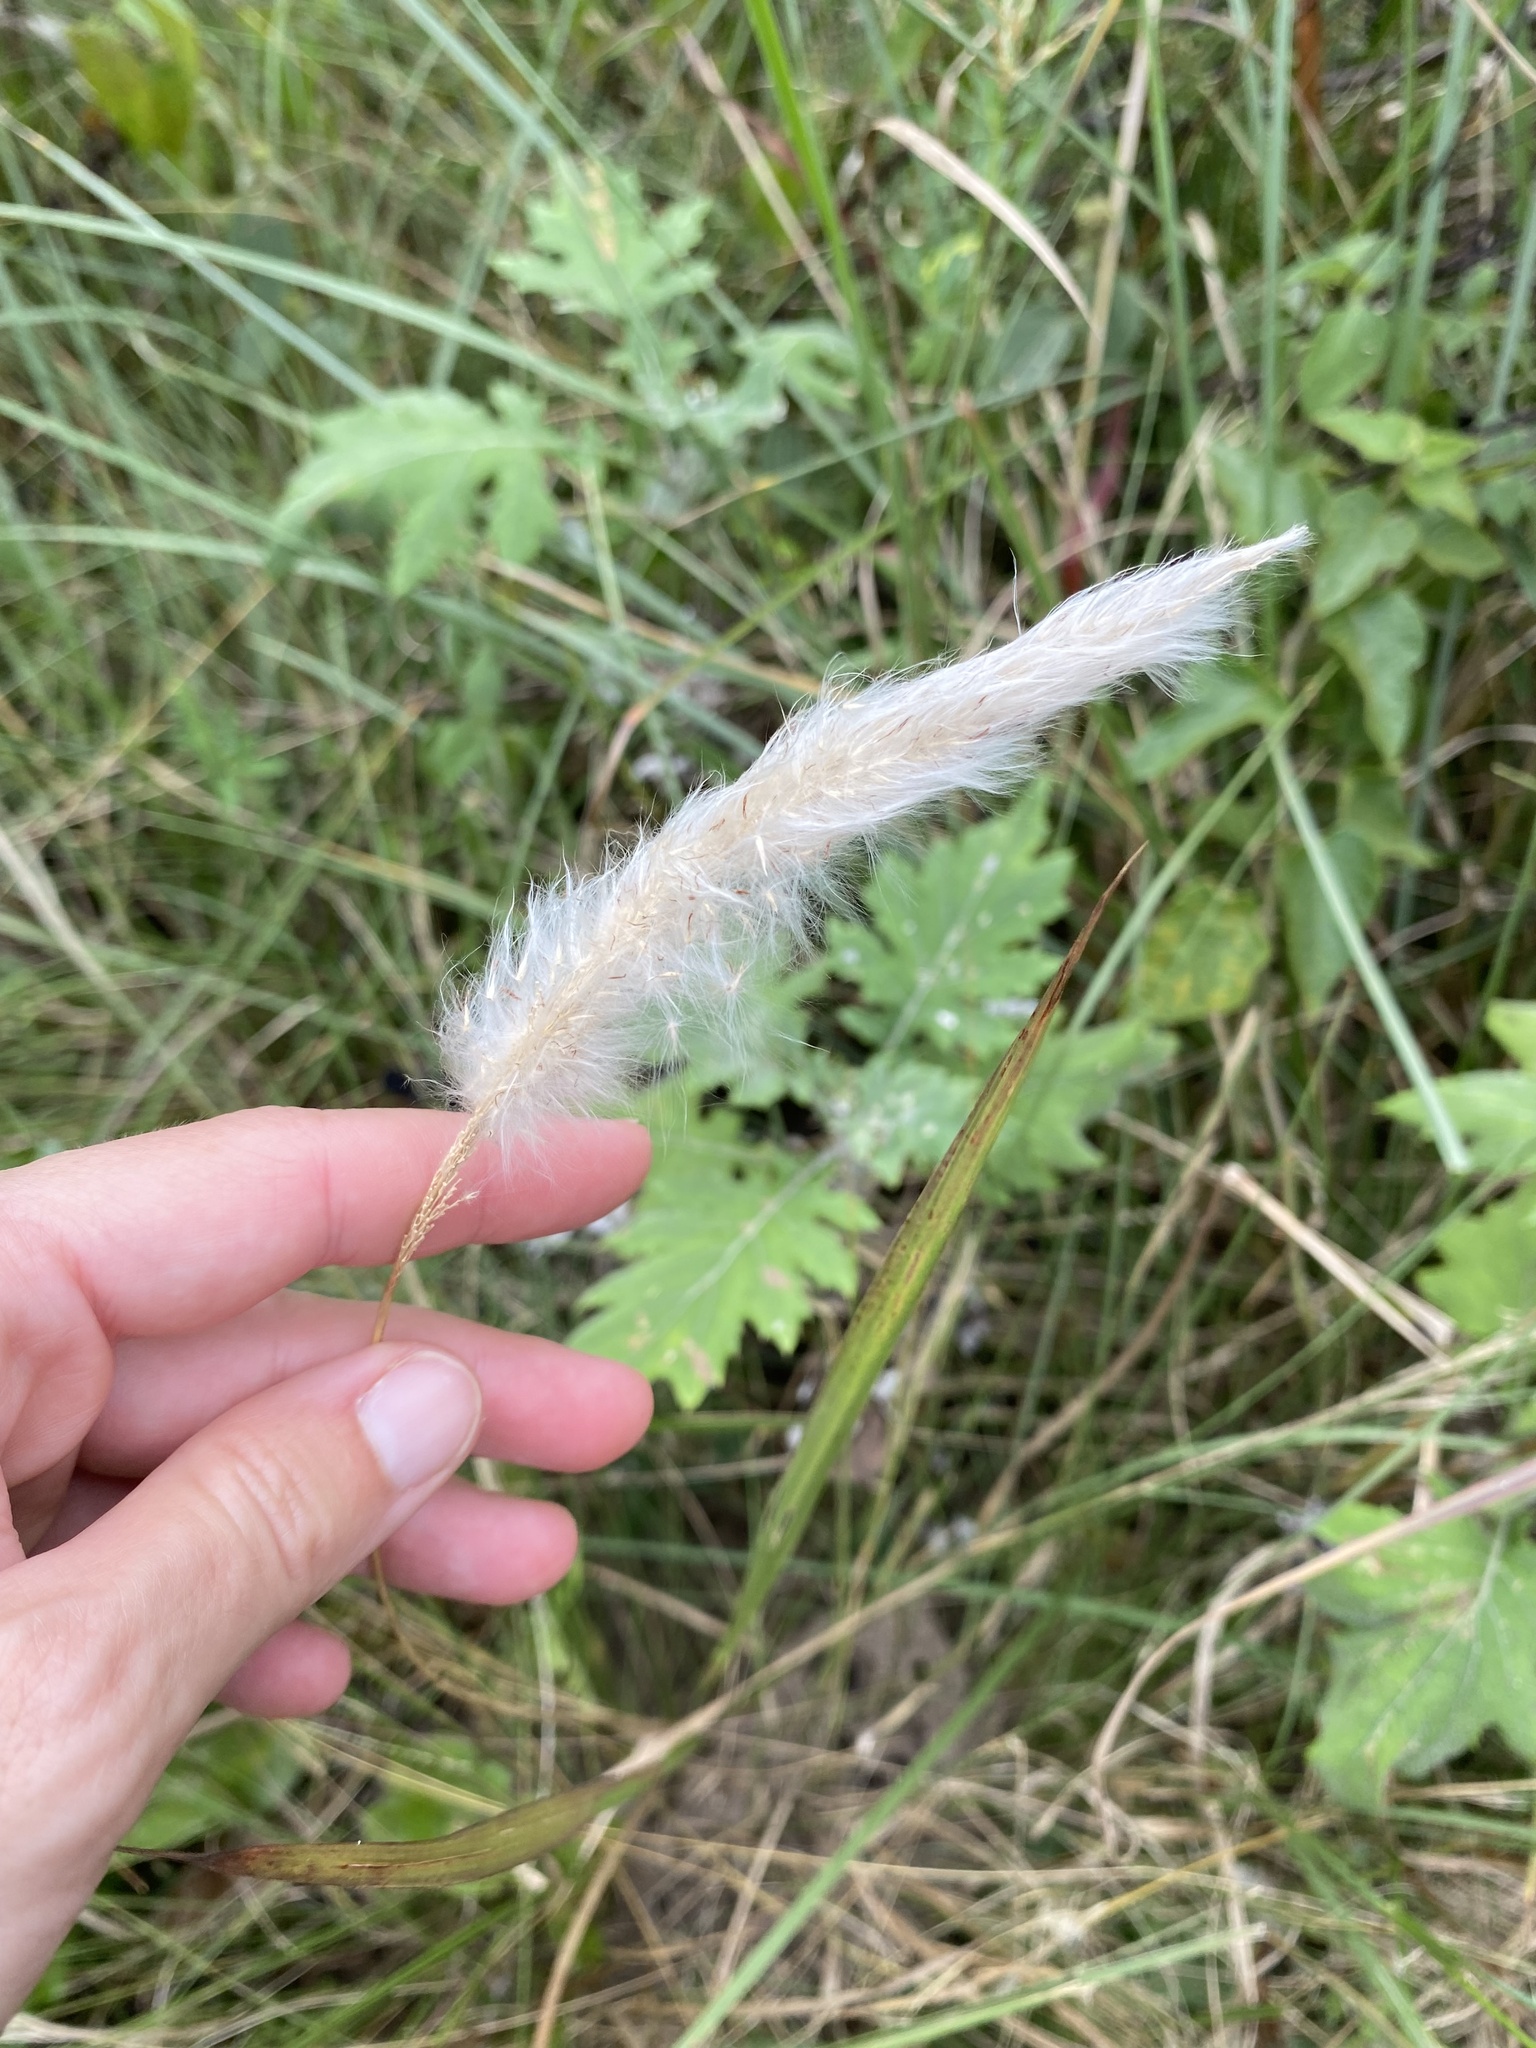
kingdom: Plantae
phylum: Tracheophyta
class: Liliopsida
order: Poales
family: Poaceae
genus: Imperata
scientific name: Imperata cylindrica
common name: Cogongrass
